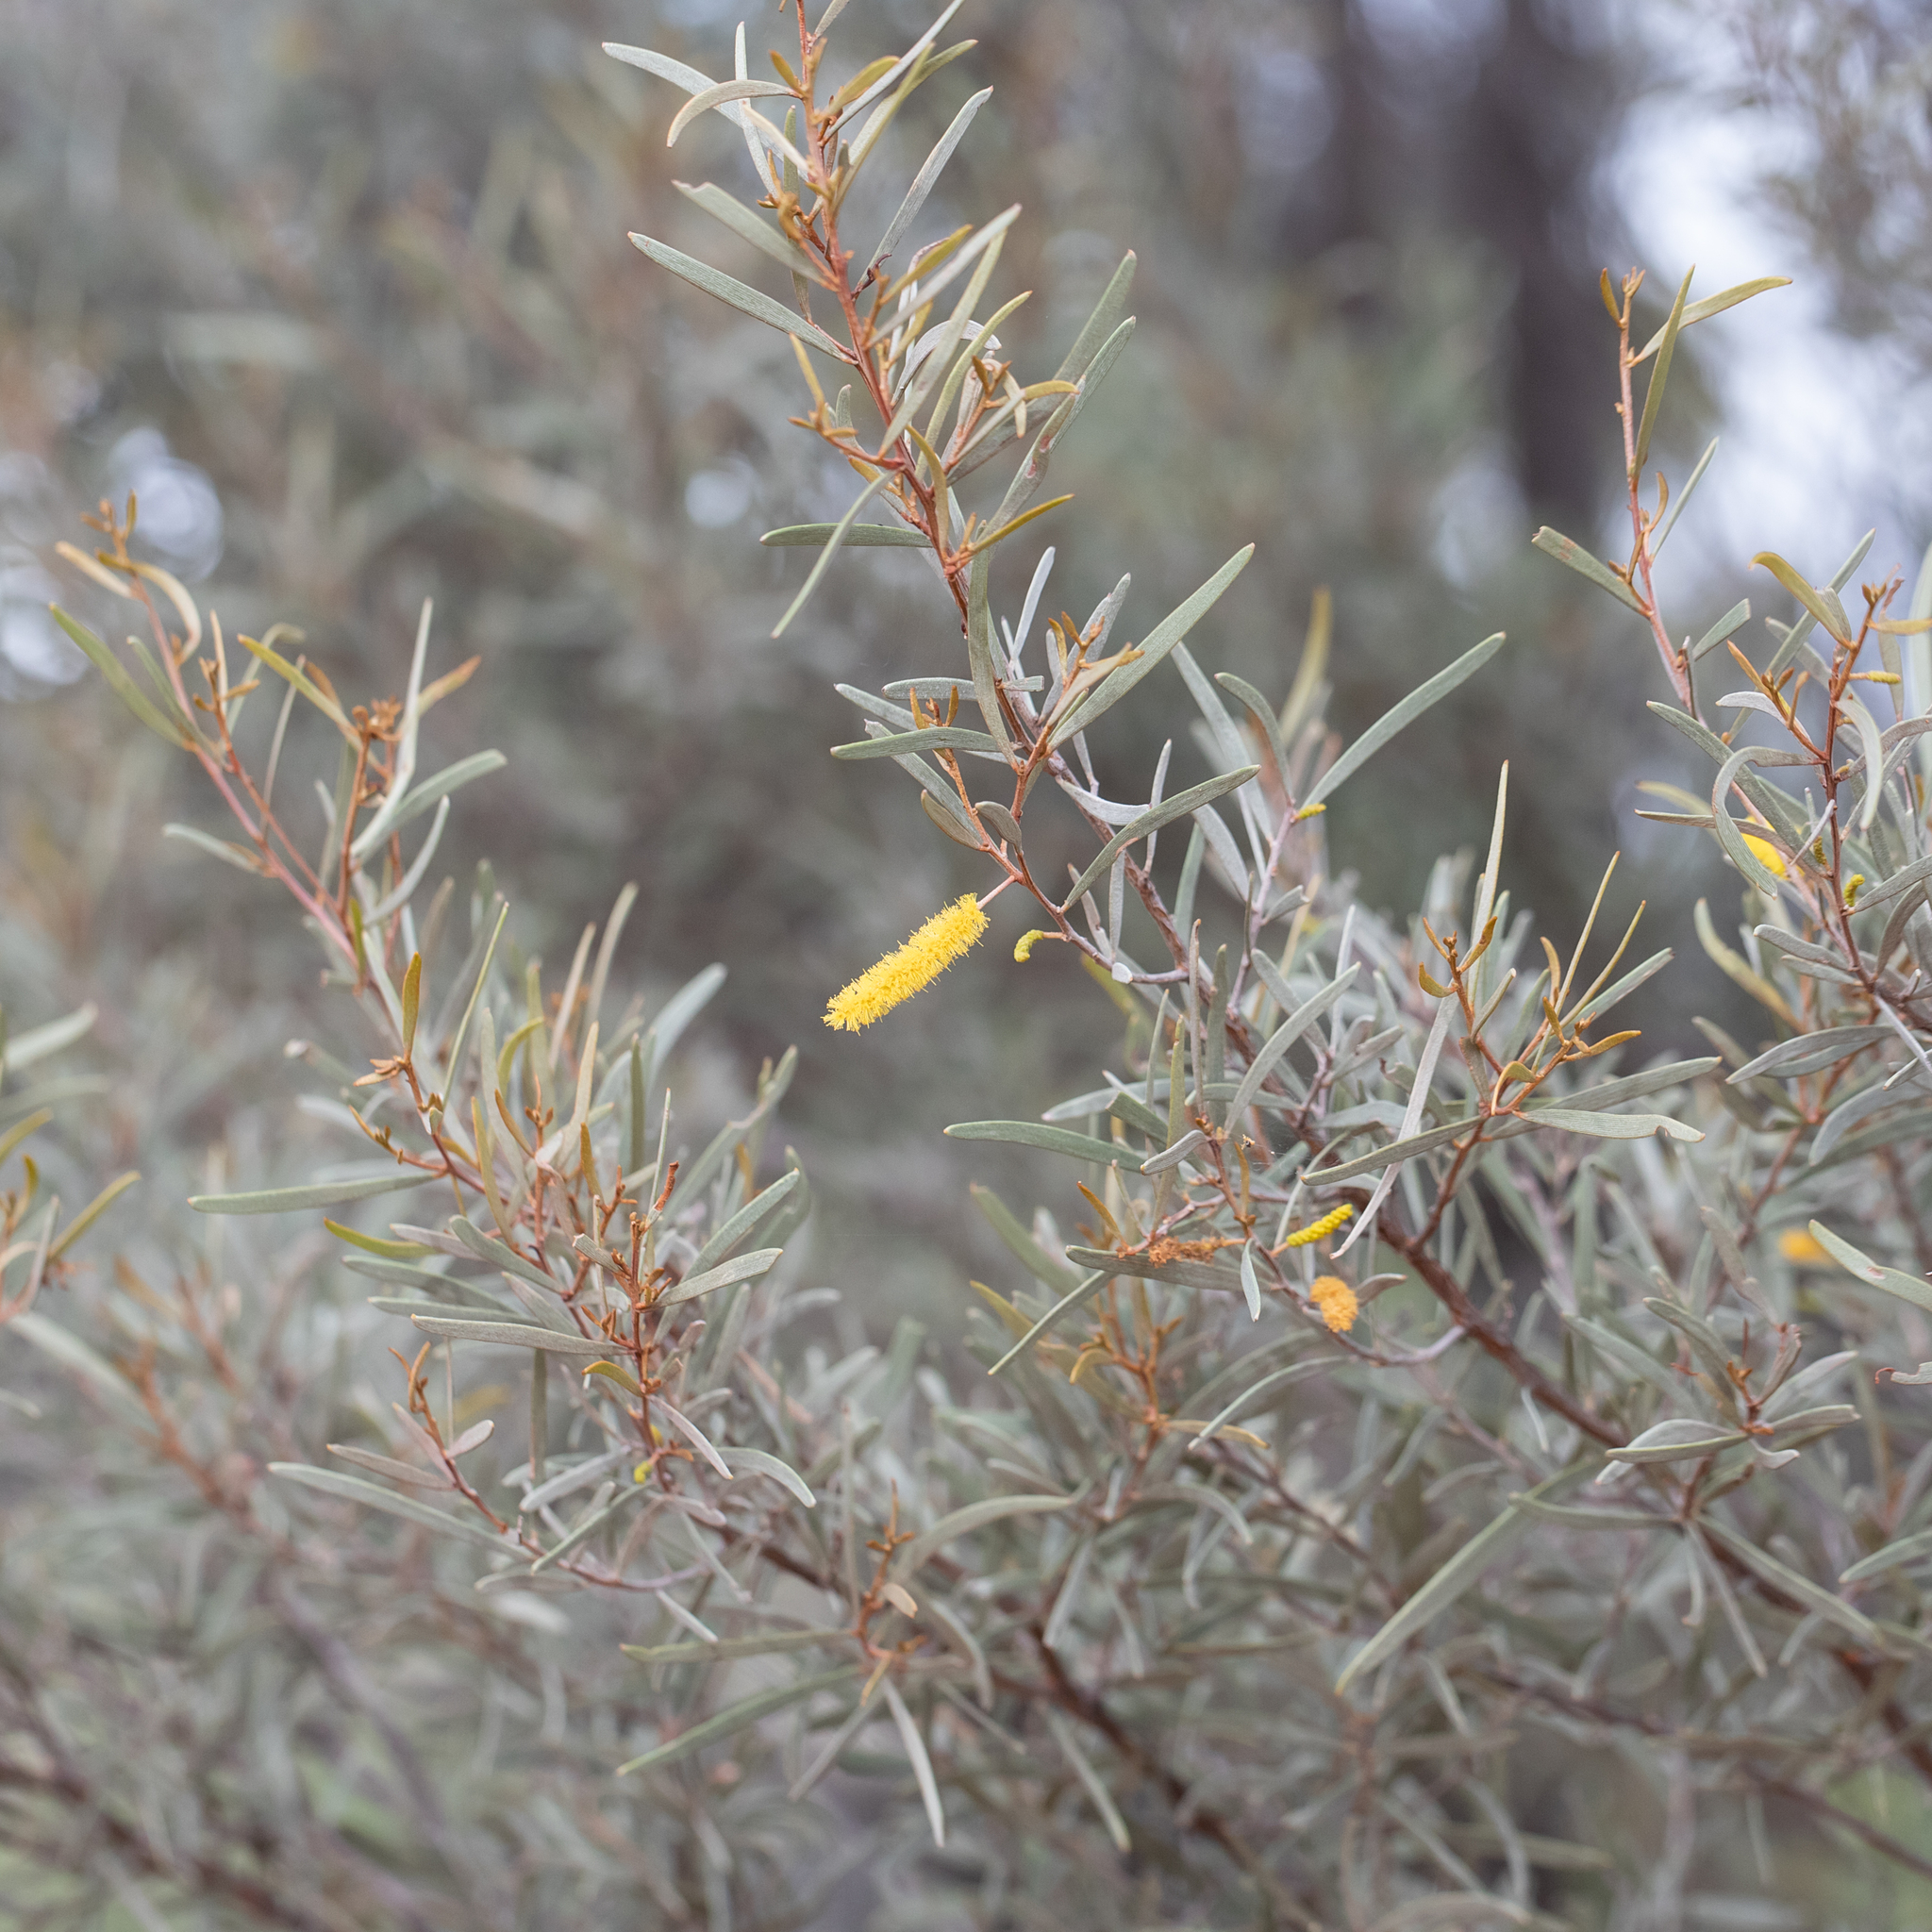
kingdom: Plantae
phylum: Tracheophyta
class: Magnoliopsida
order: Fabales
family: Fabaceae
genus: Acacia
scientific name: Acacia aneura
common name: Mulga
